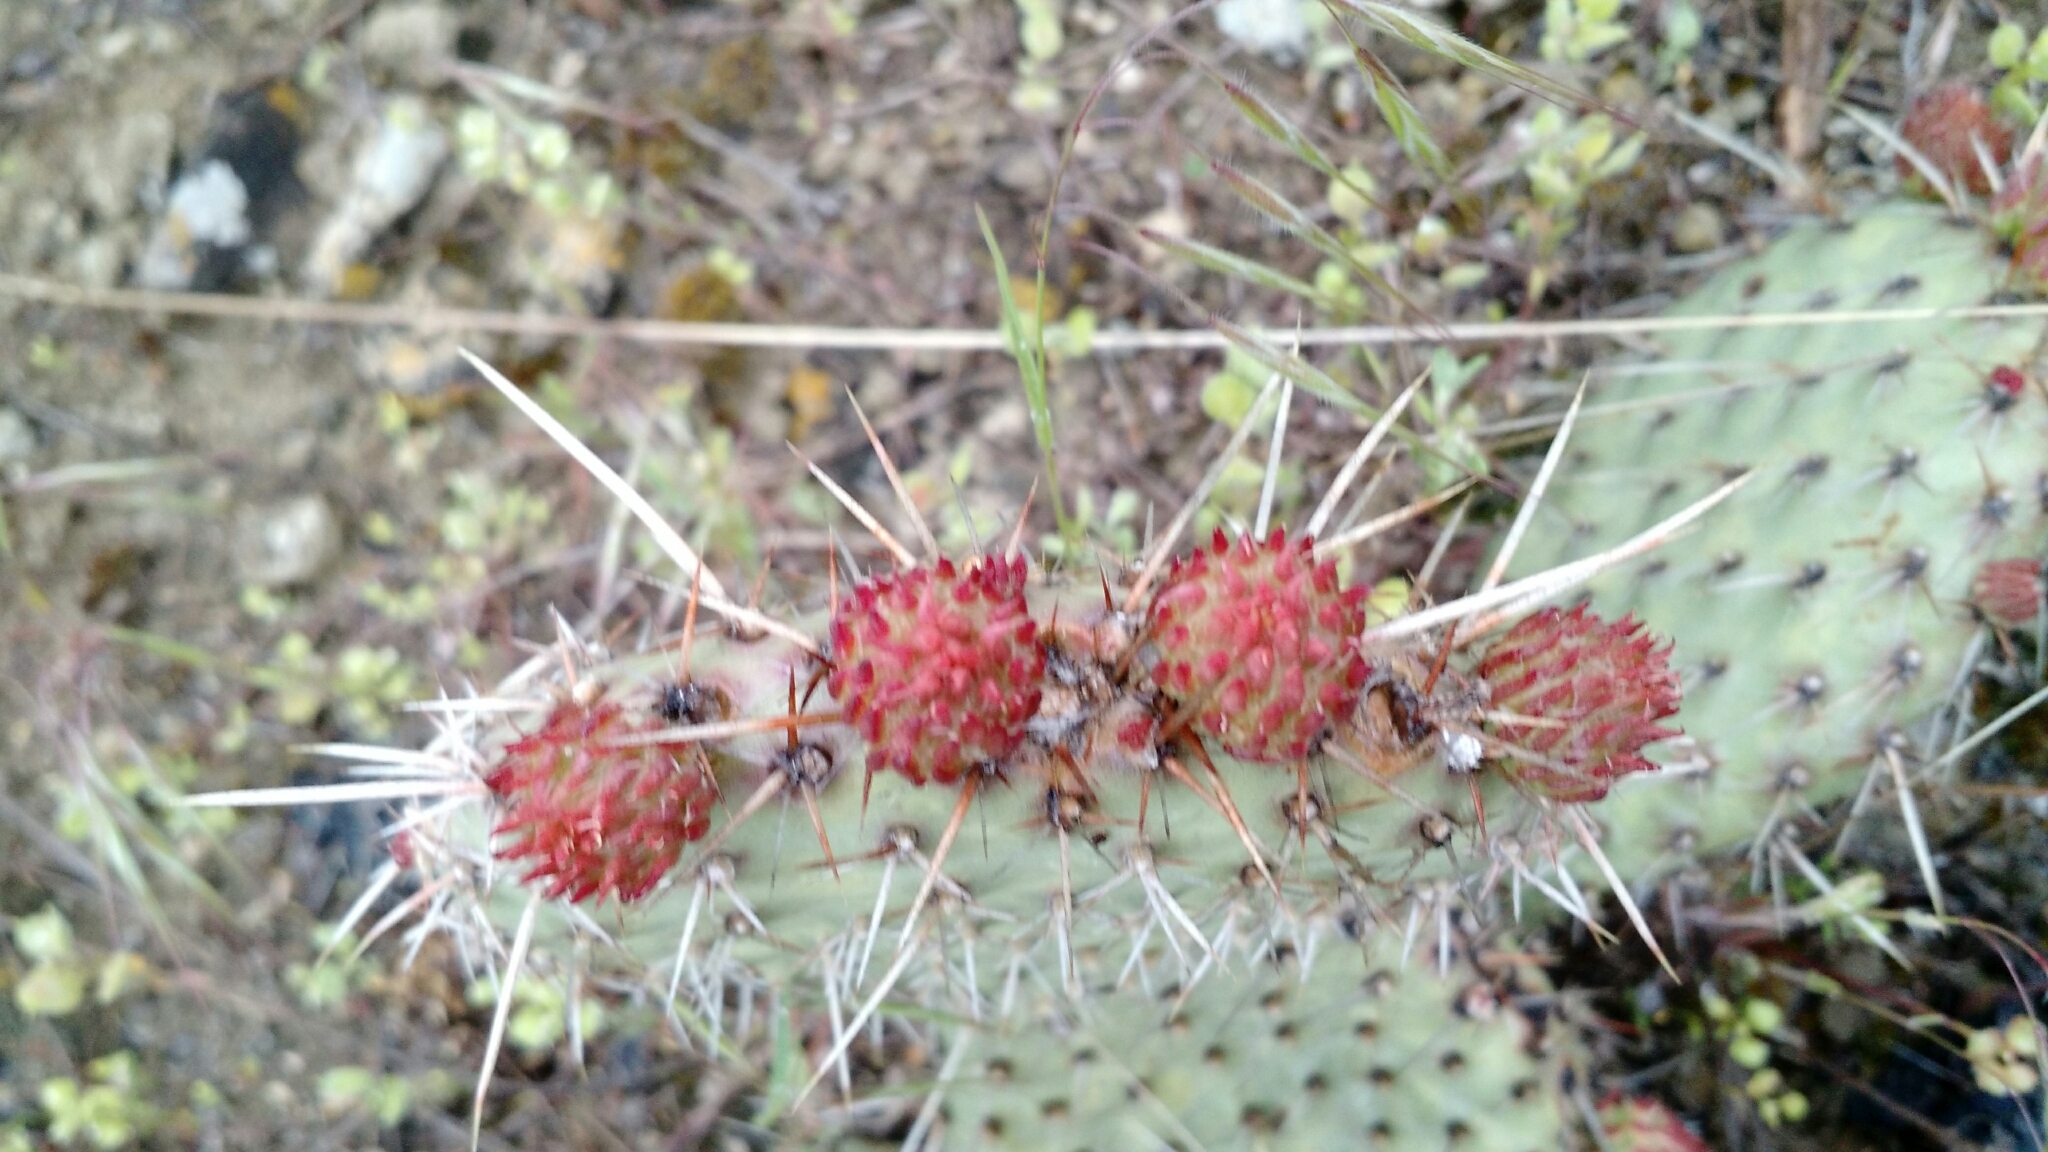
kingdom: Plantae
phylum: Tracheophyta
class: Magnoliopsida
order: Caryophyllales
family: Cactaceae
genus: Opuntia
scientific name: Opuntia polyacantha
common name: Plains prickly-pear
